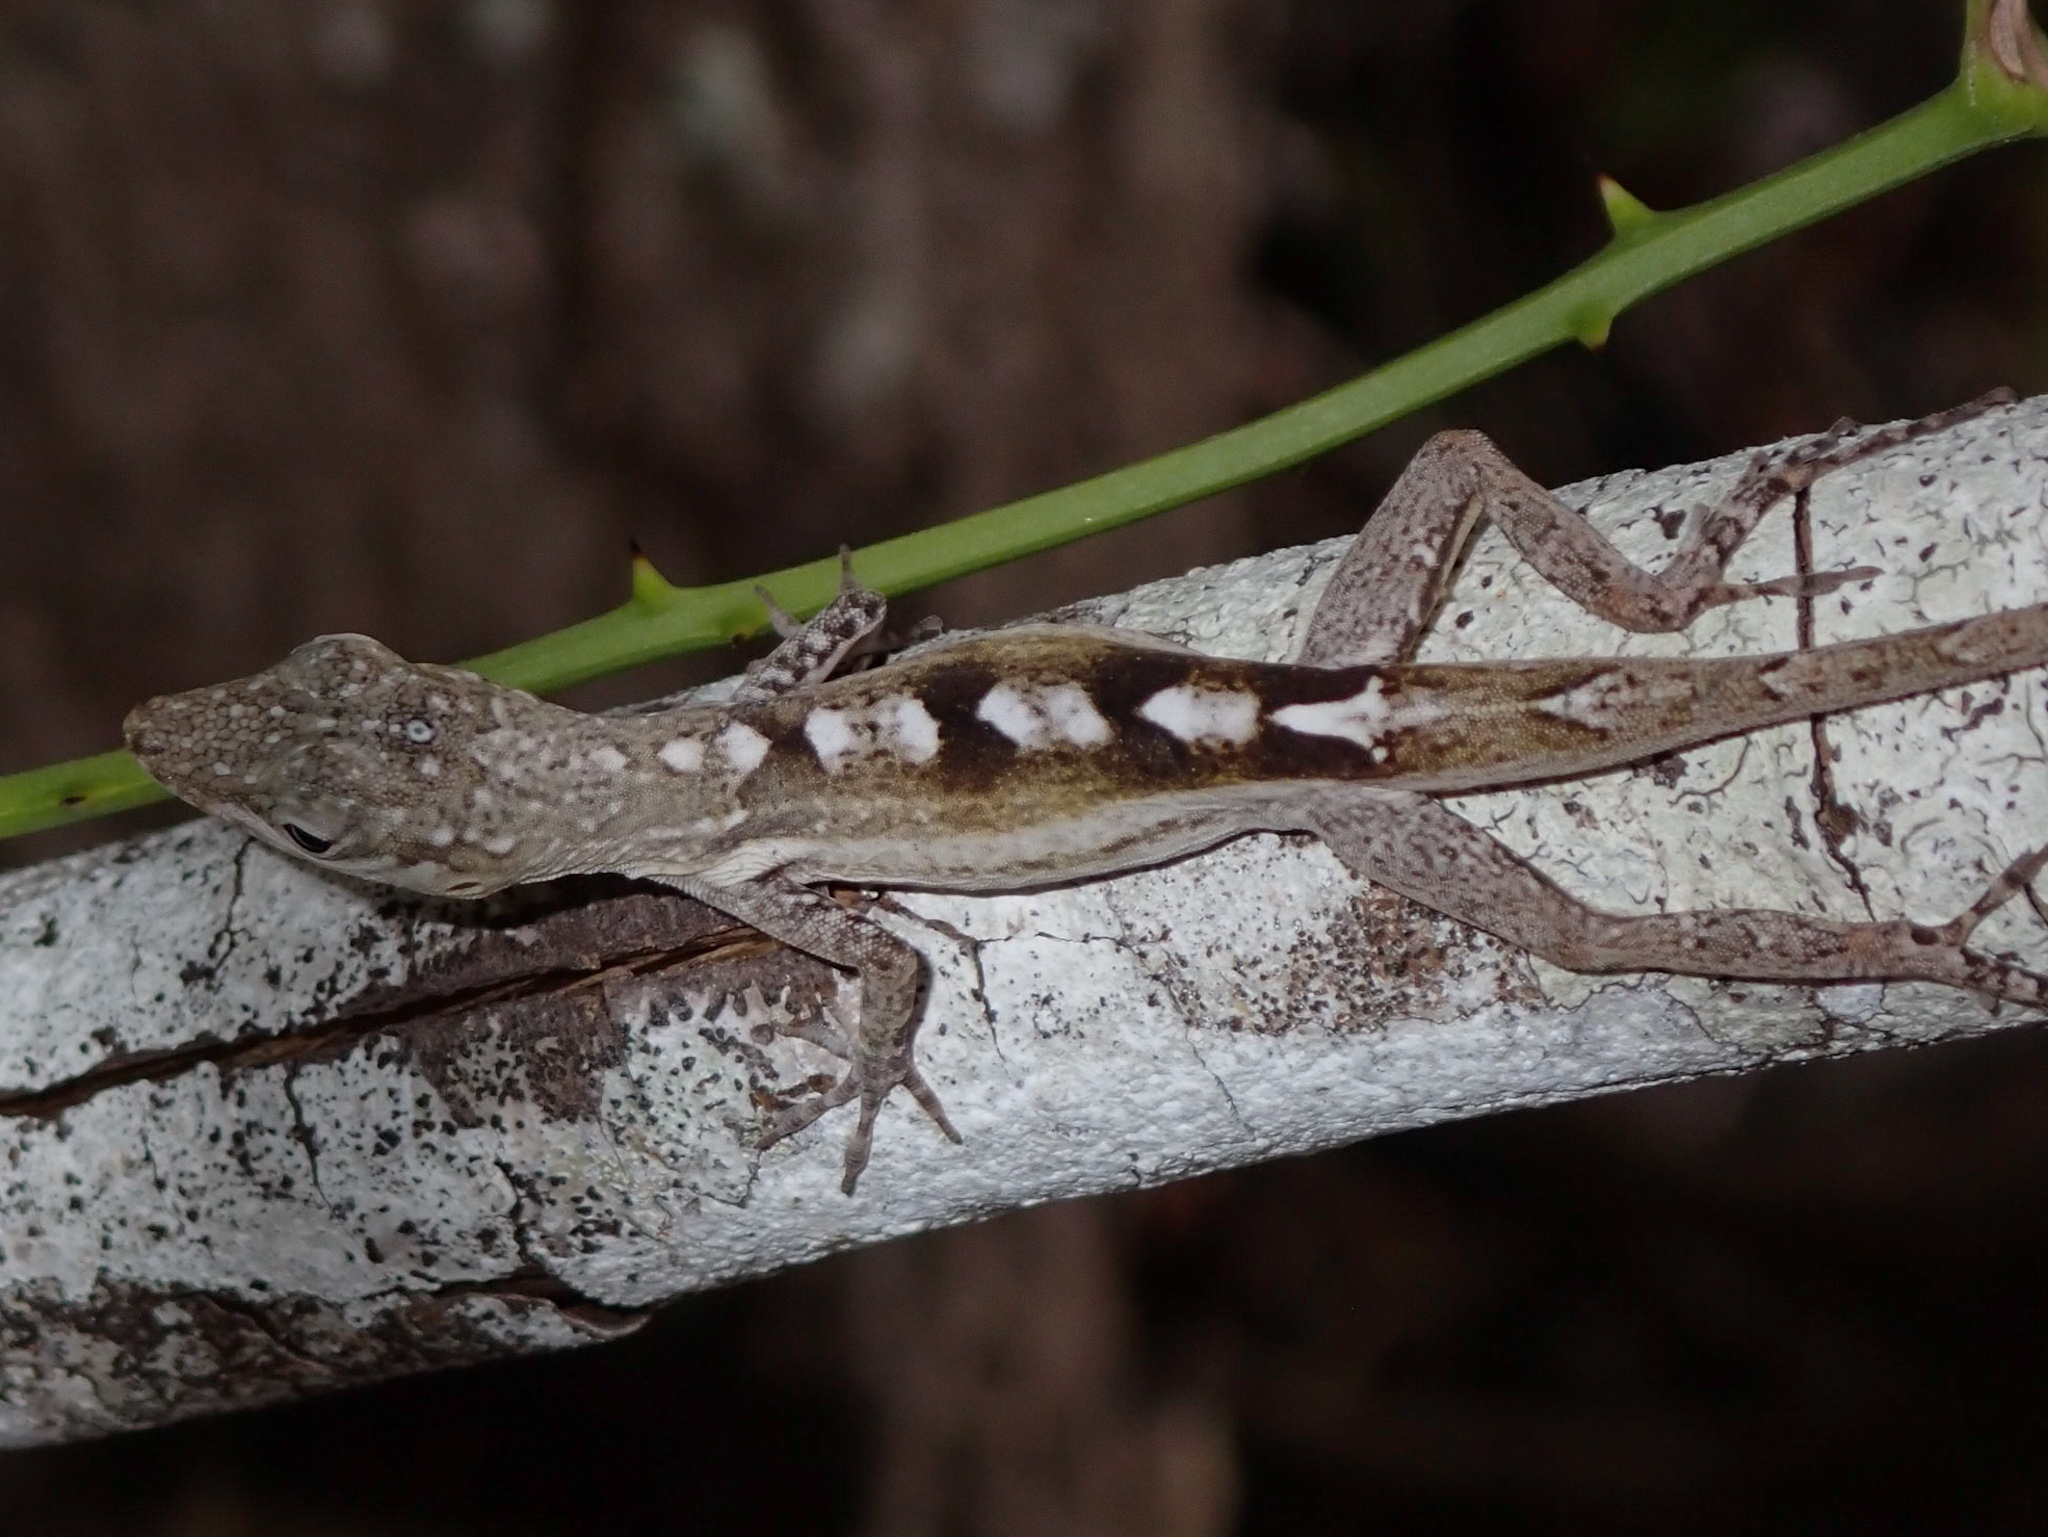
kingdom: Animalia
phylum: Chordata
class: Squamata
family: Dactyloidae
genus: Anolis
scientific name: Anolis conspersus
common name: Grand cayman anole
